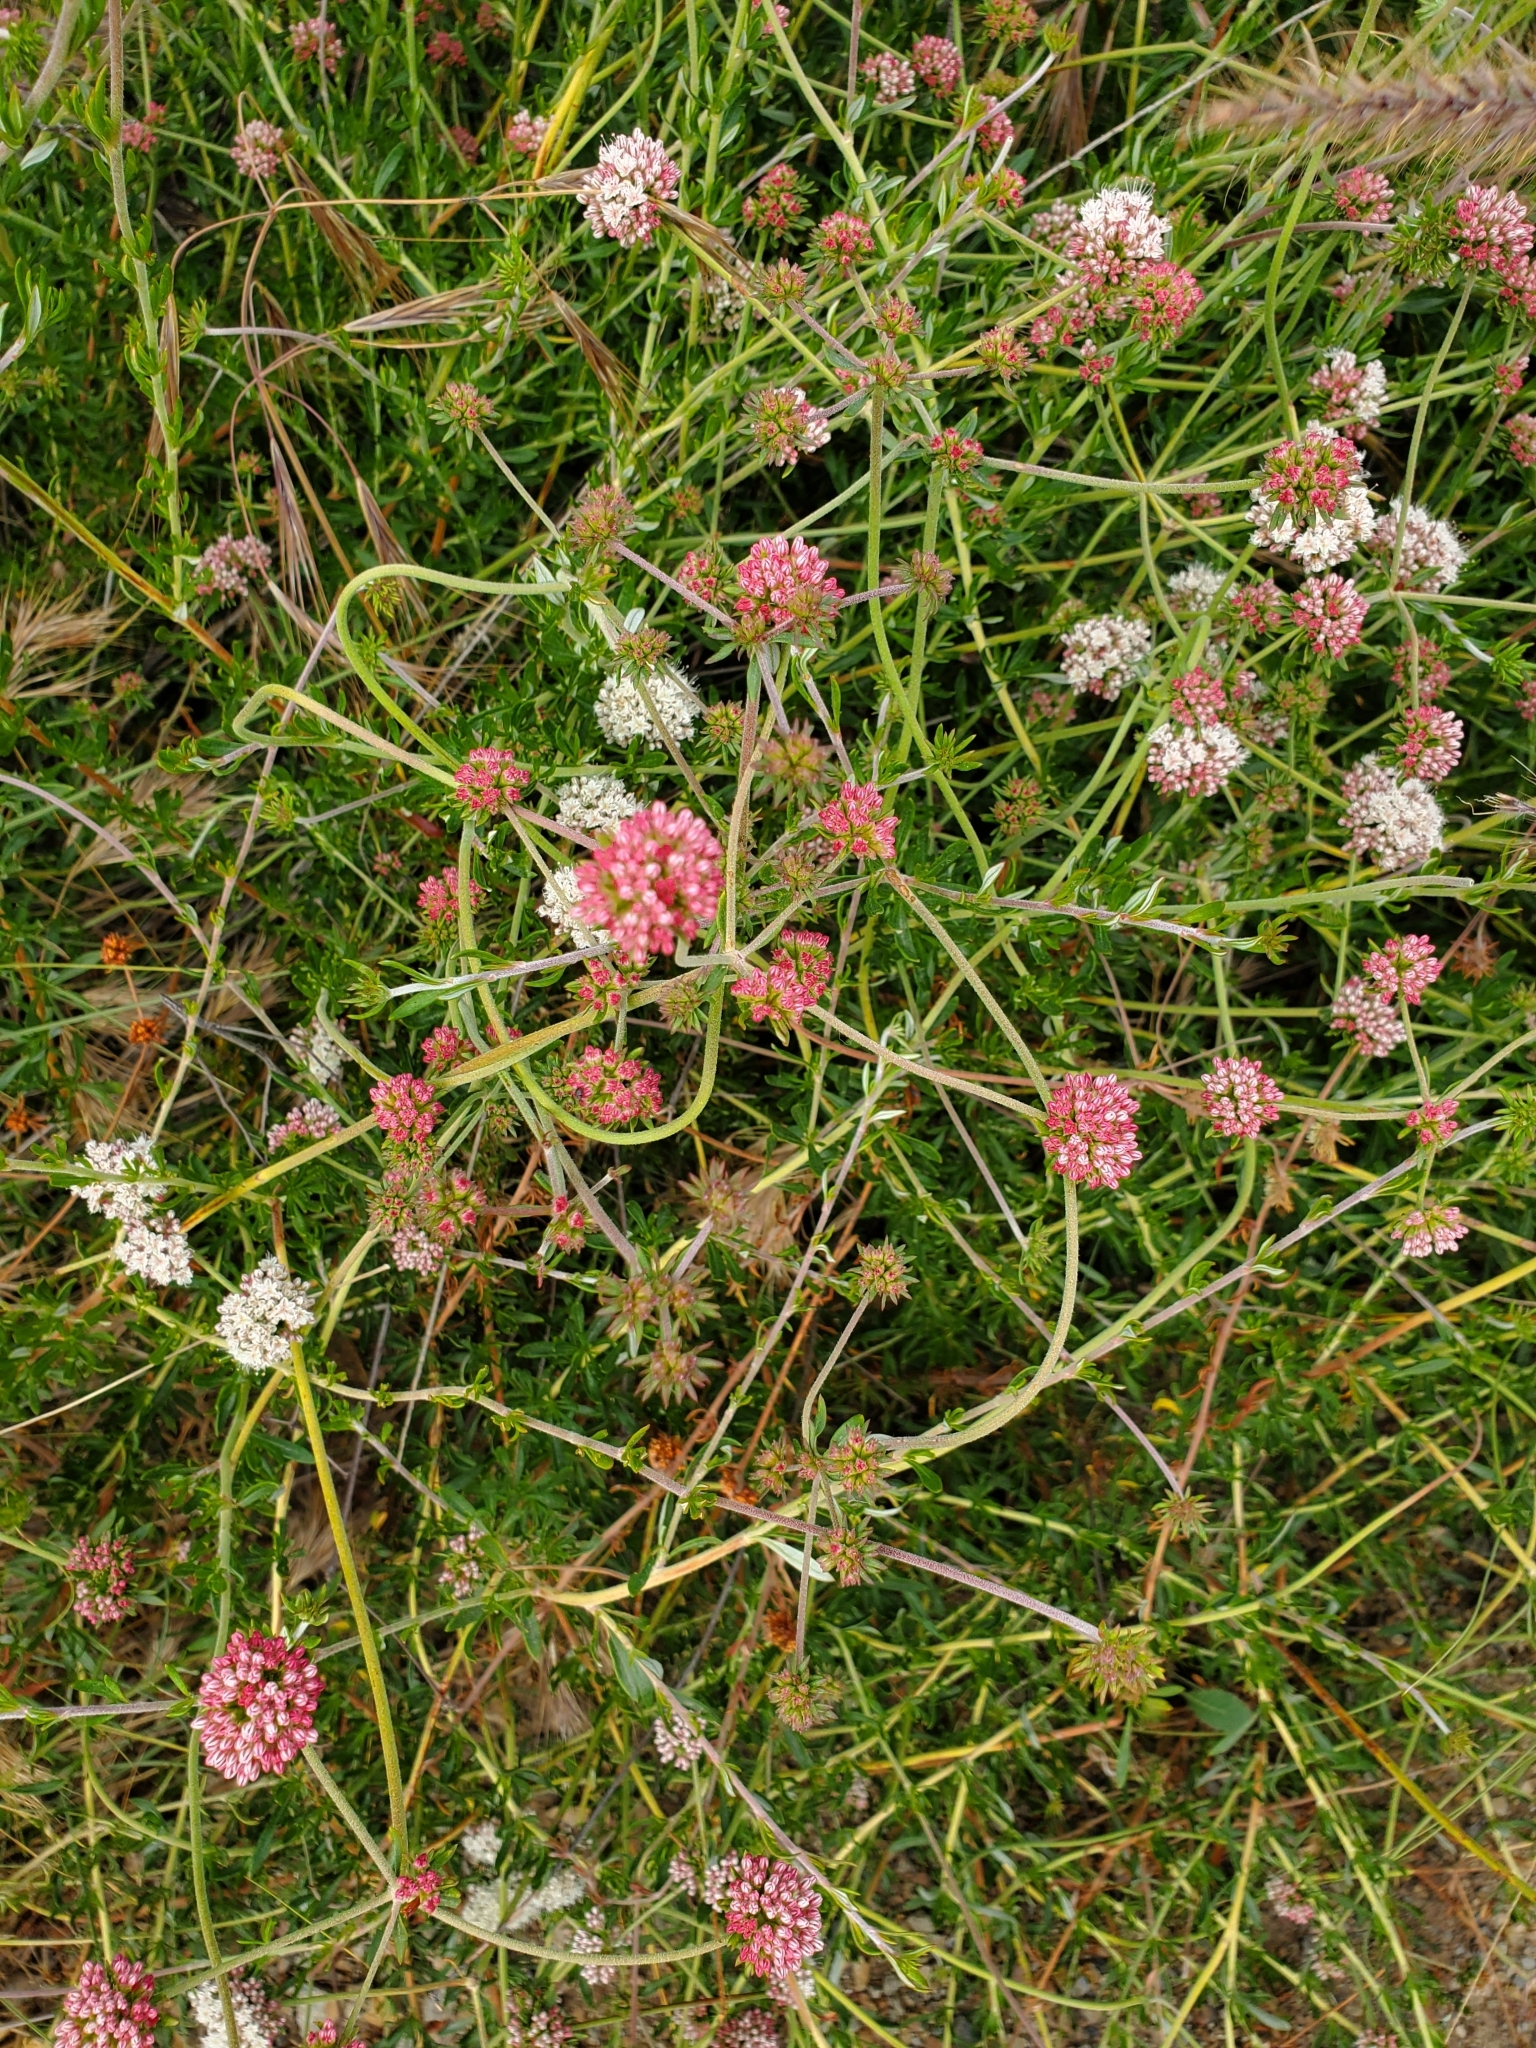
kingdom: Plantae
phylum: Tracheophyta
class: Magnoliopsida
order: Caryophyllales
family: Polygonaceae
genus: Eriogonum
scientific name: Eriogonum fasciculatum
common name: California wild buckwheat
